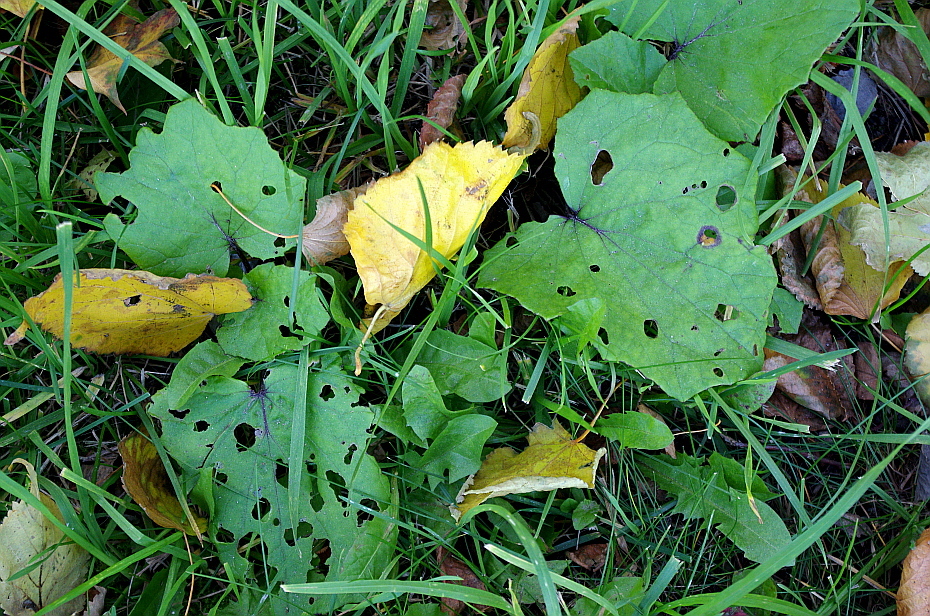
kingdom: Plantae
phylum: Tracheophyta
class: Magnoliopsida
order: Asterales
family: Asteraceae
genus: Tussilago
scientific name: Tussilago farfara
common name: Coltsfoot
